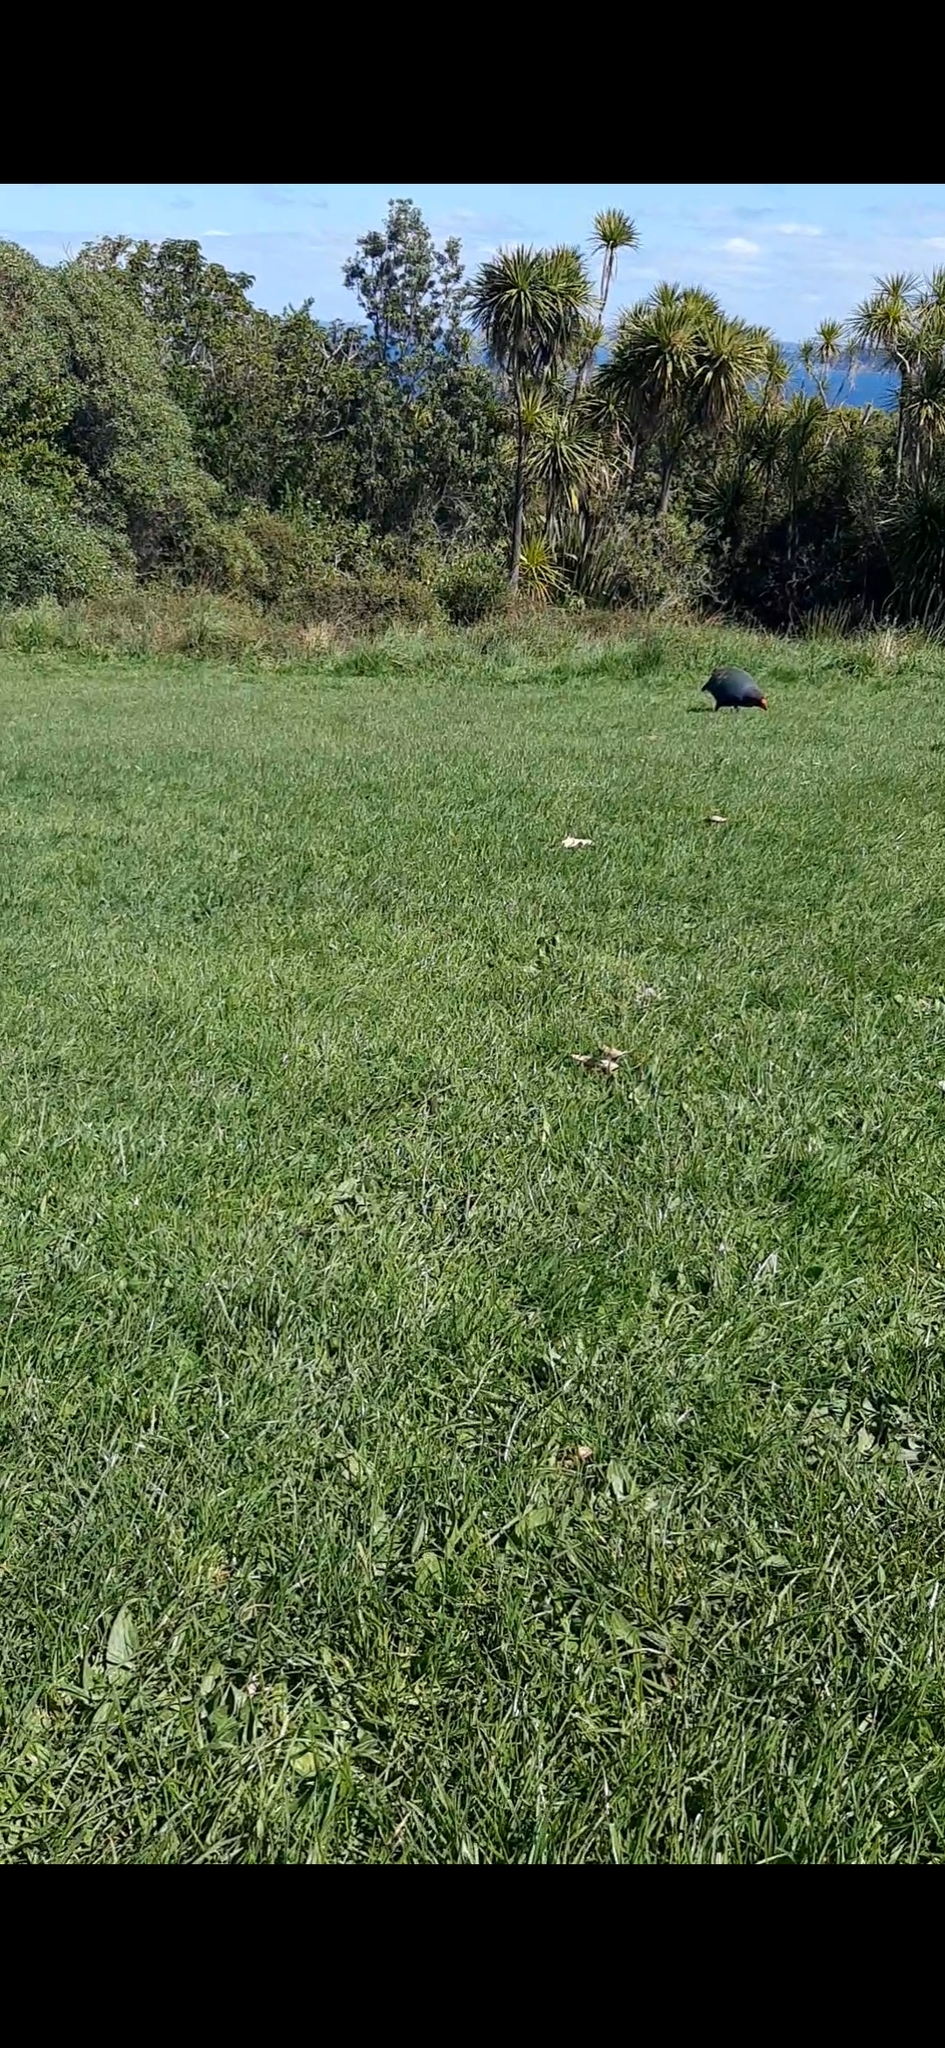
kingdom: Animalia
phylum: Chordata
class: Aves
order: Gruiformes
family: Rallidae
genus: Porphyrio
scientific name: Porphyrio hochstetteri
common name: South island takahe
